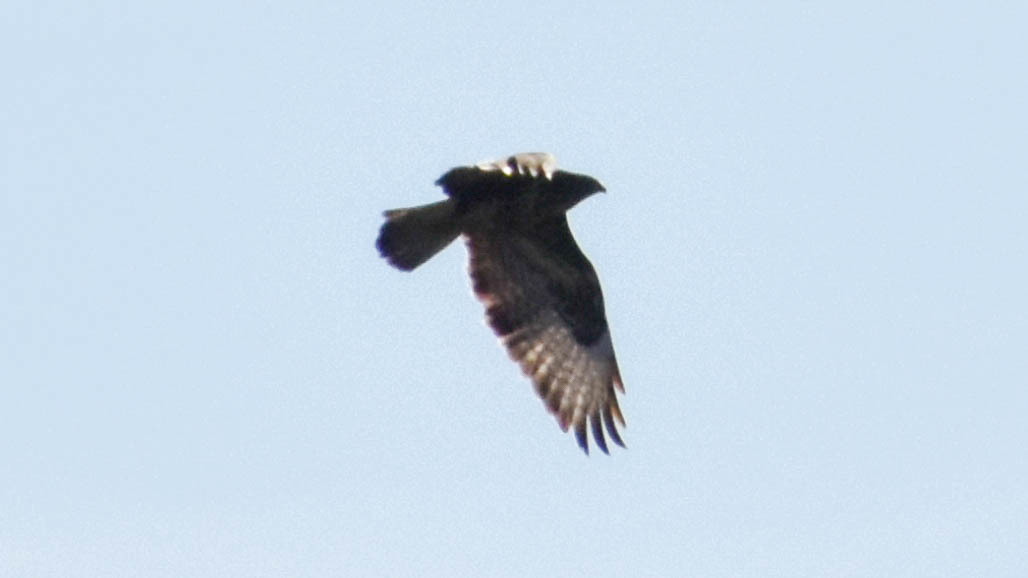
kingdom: Animalia
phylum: Chordata
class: Aves
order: Accipitriformes
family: Accipitridae
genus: Buteo
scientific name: Buteo buteo
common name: Common buzzard
